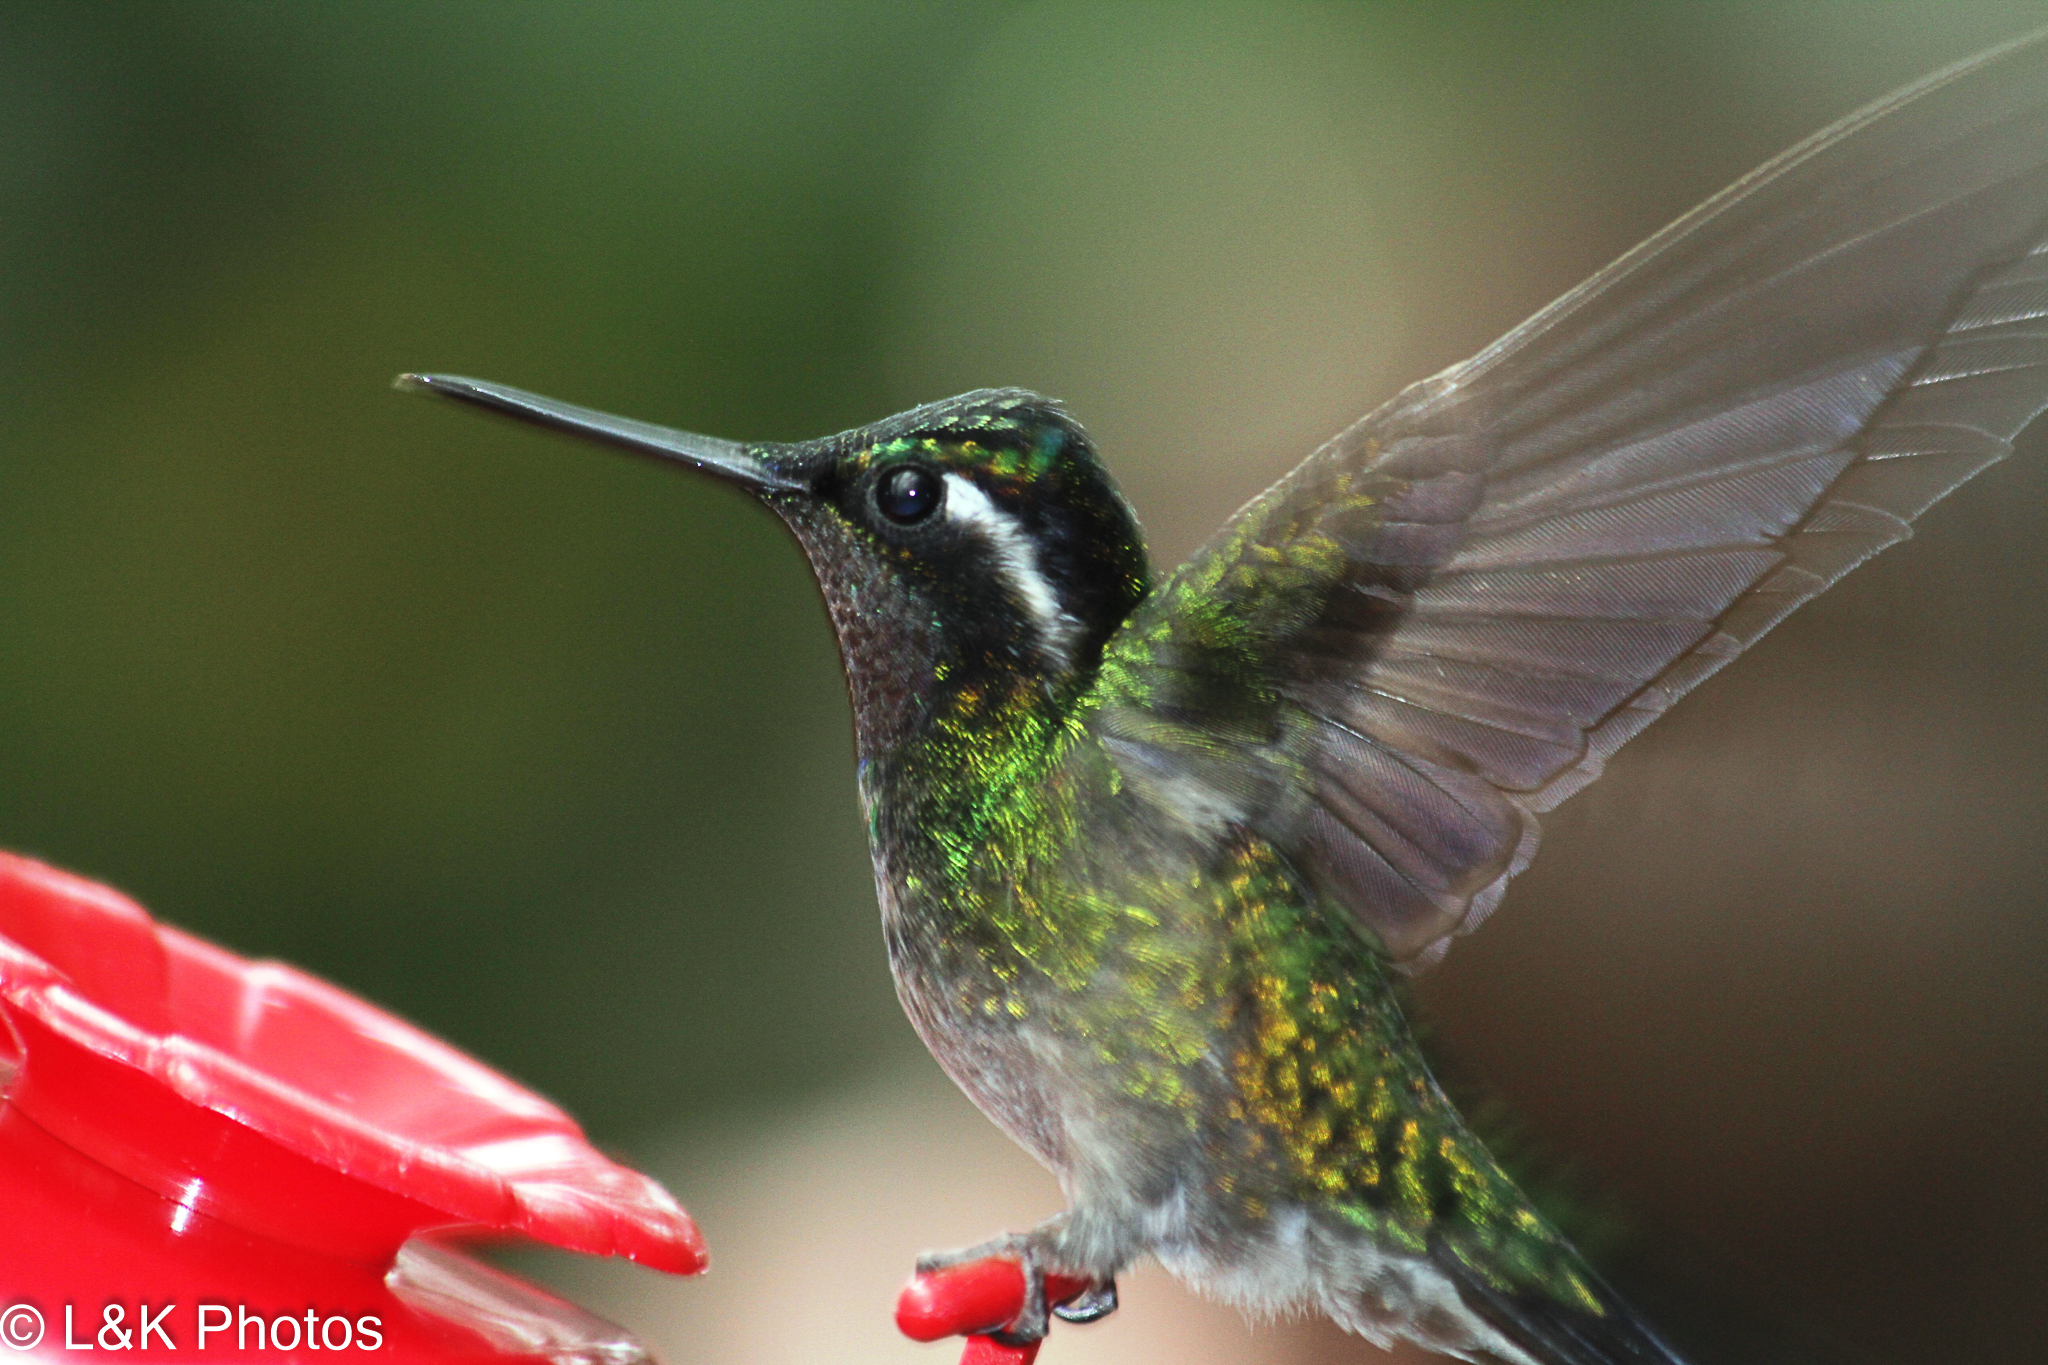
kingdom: Animalia
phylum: Chordata
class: Aves
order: Apodiformes
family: Trochilidae
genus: Lampornis
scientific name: Lampornis calolaemus
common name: Purple-throated mountain-gem
